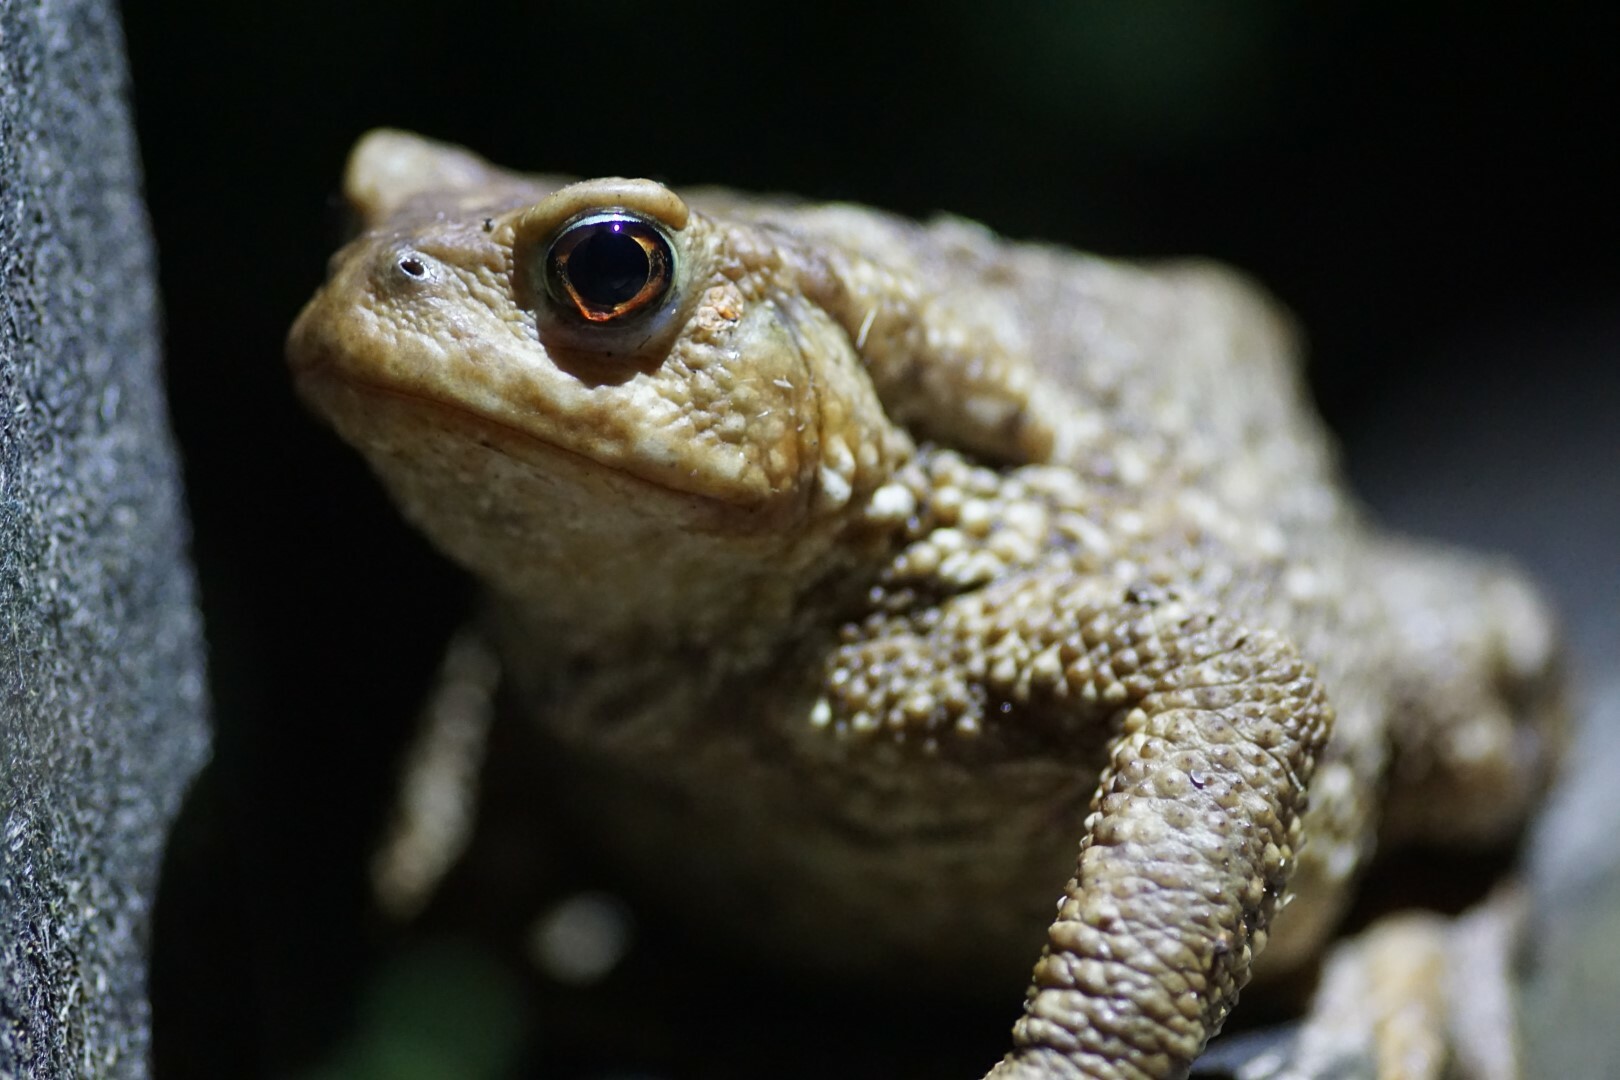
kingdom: Animalia
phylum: Chordata
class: Amphibia
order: Anura
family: Bufonidae
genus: Bufo
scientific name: Bufo spinosus
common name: Western common toad
